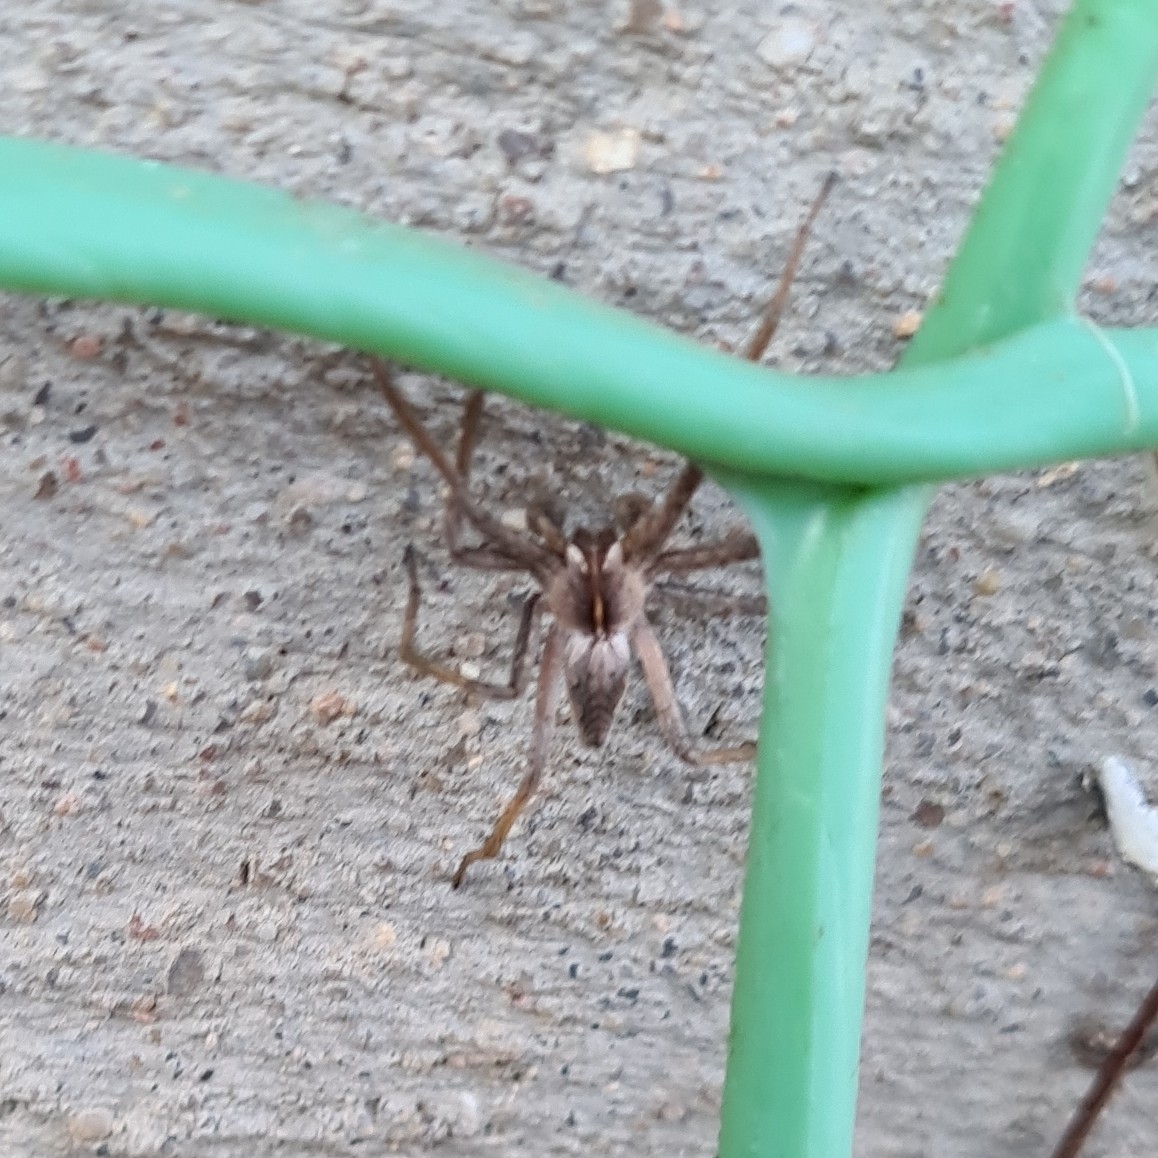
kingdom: Animalia
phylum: Arthropoda
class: Arachnida
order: Araneae
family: Pisauridae
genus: Pisaura
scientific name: Pisaura mirabilis
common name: Tent spider
